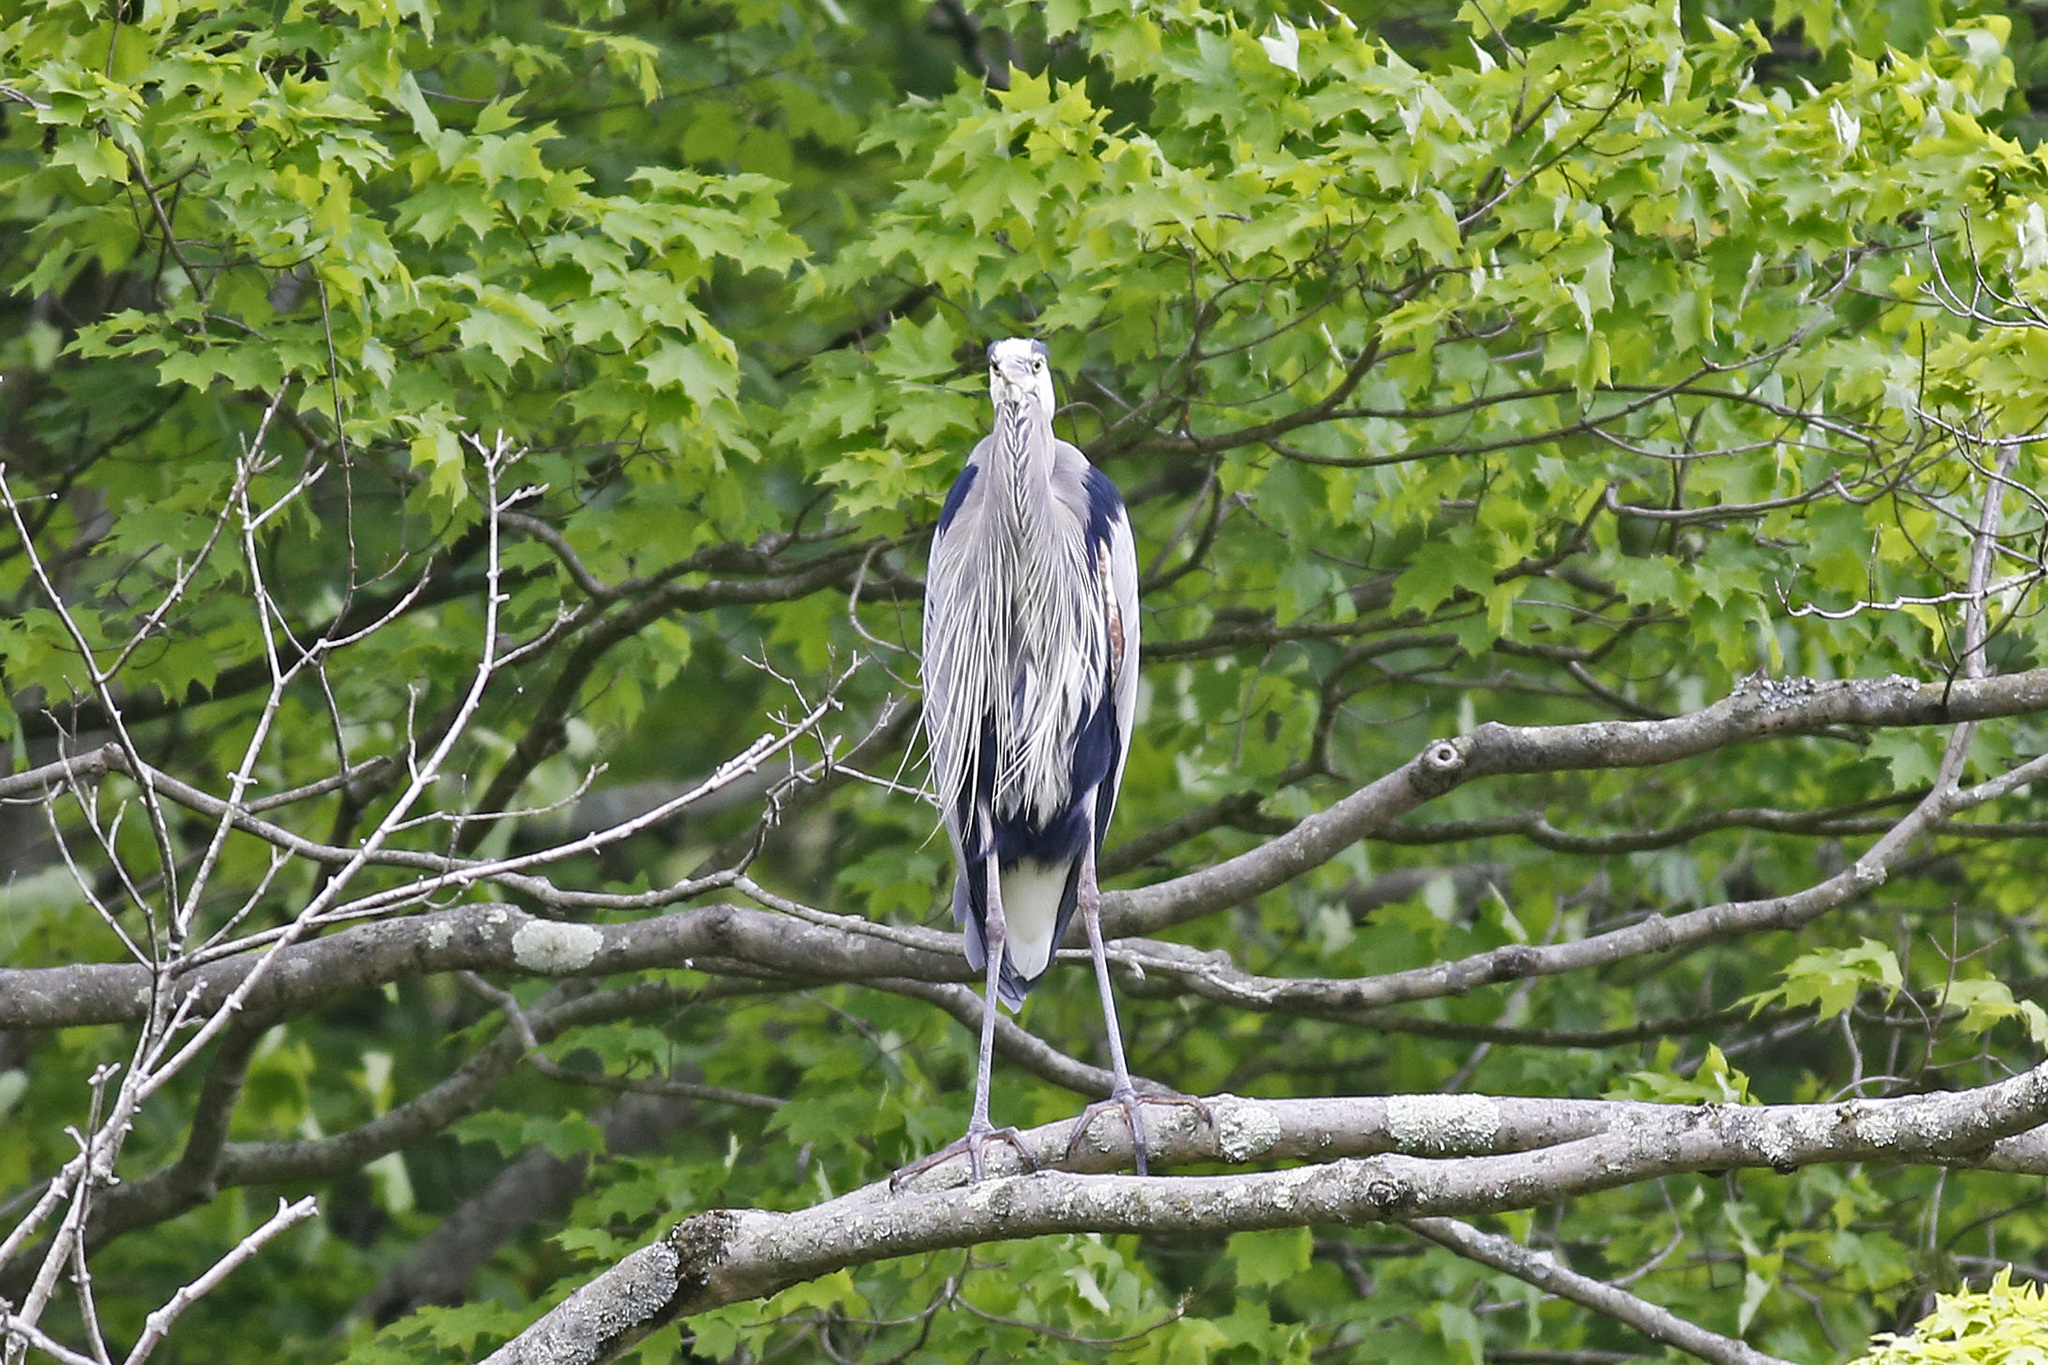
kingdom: Animalia
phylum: Chordata
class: Aves
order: Pelecaniformes
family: Ardeidae
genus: Ardea
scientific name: Ardea herodias
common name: Great blue heron
